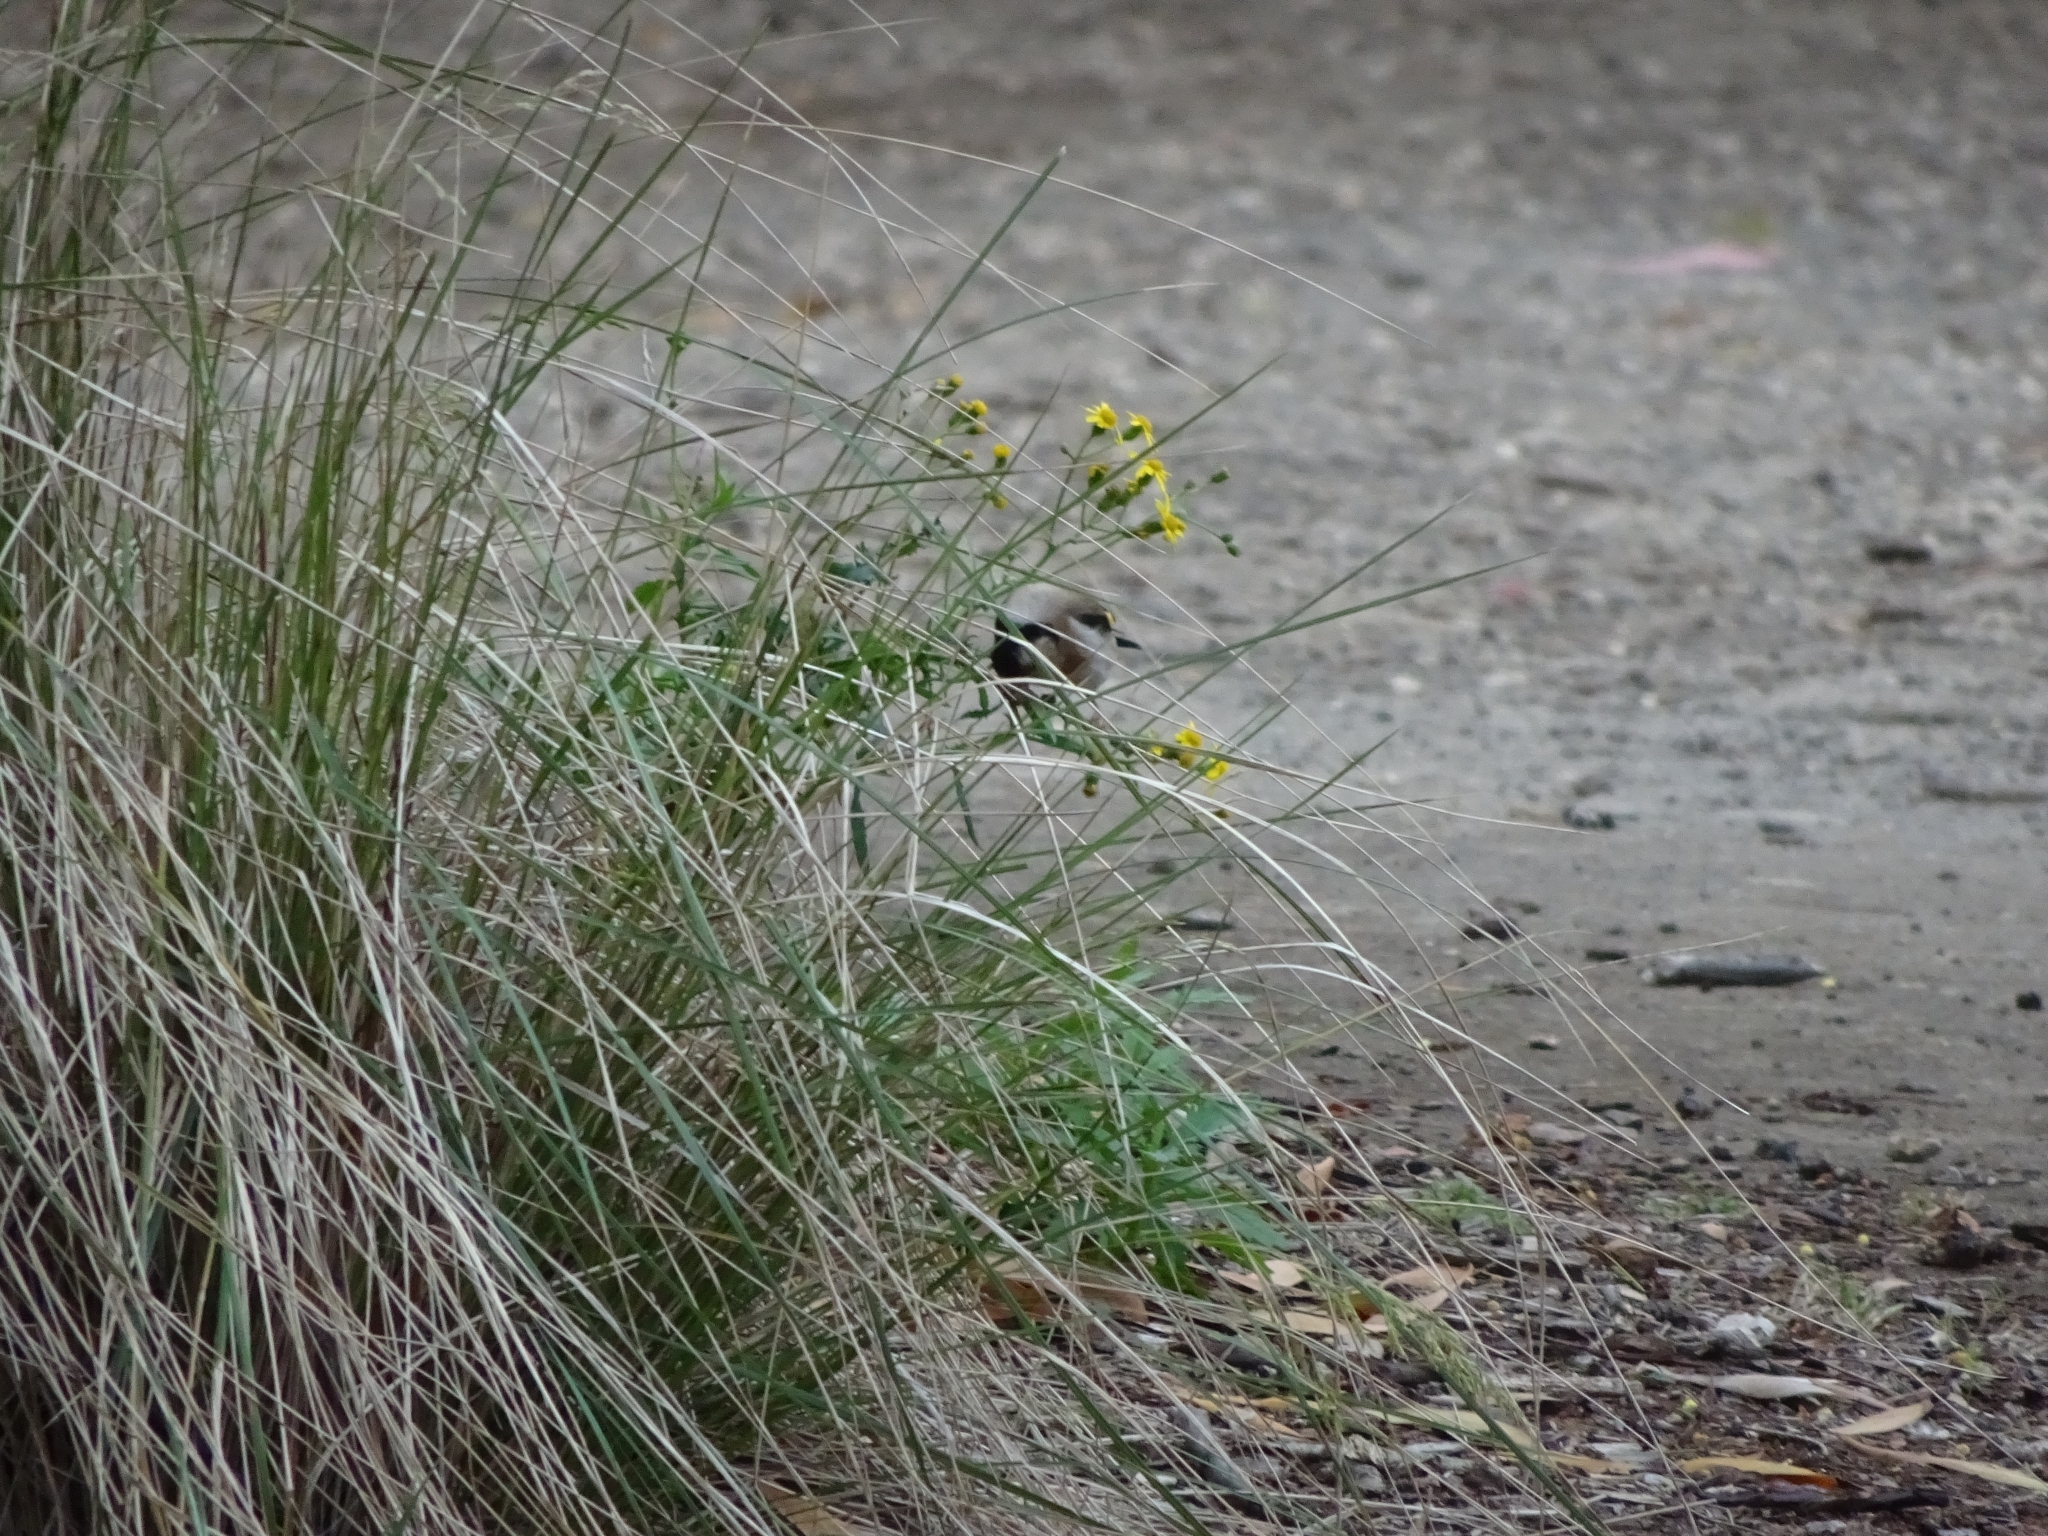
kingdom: Animalia
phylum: Chordata
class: Aves
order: Passeriformes
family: Fringillidae
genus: Carduelis
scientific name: Carduelis carduelis
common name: European goldfinch
